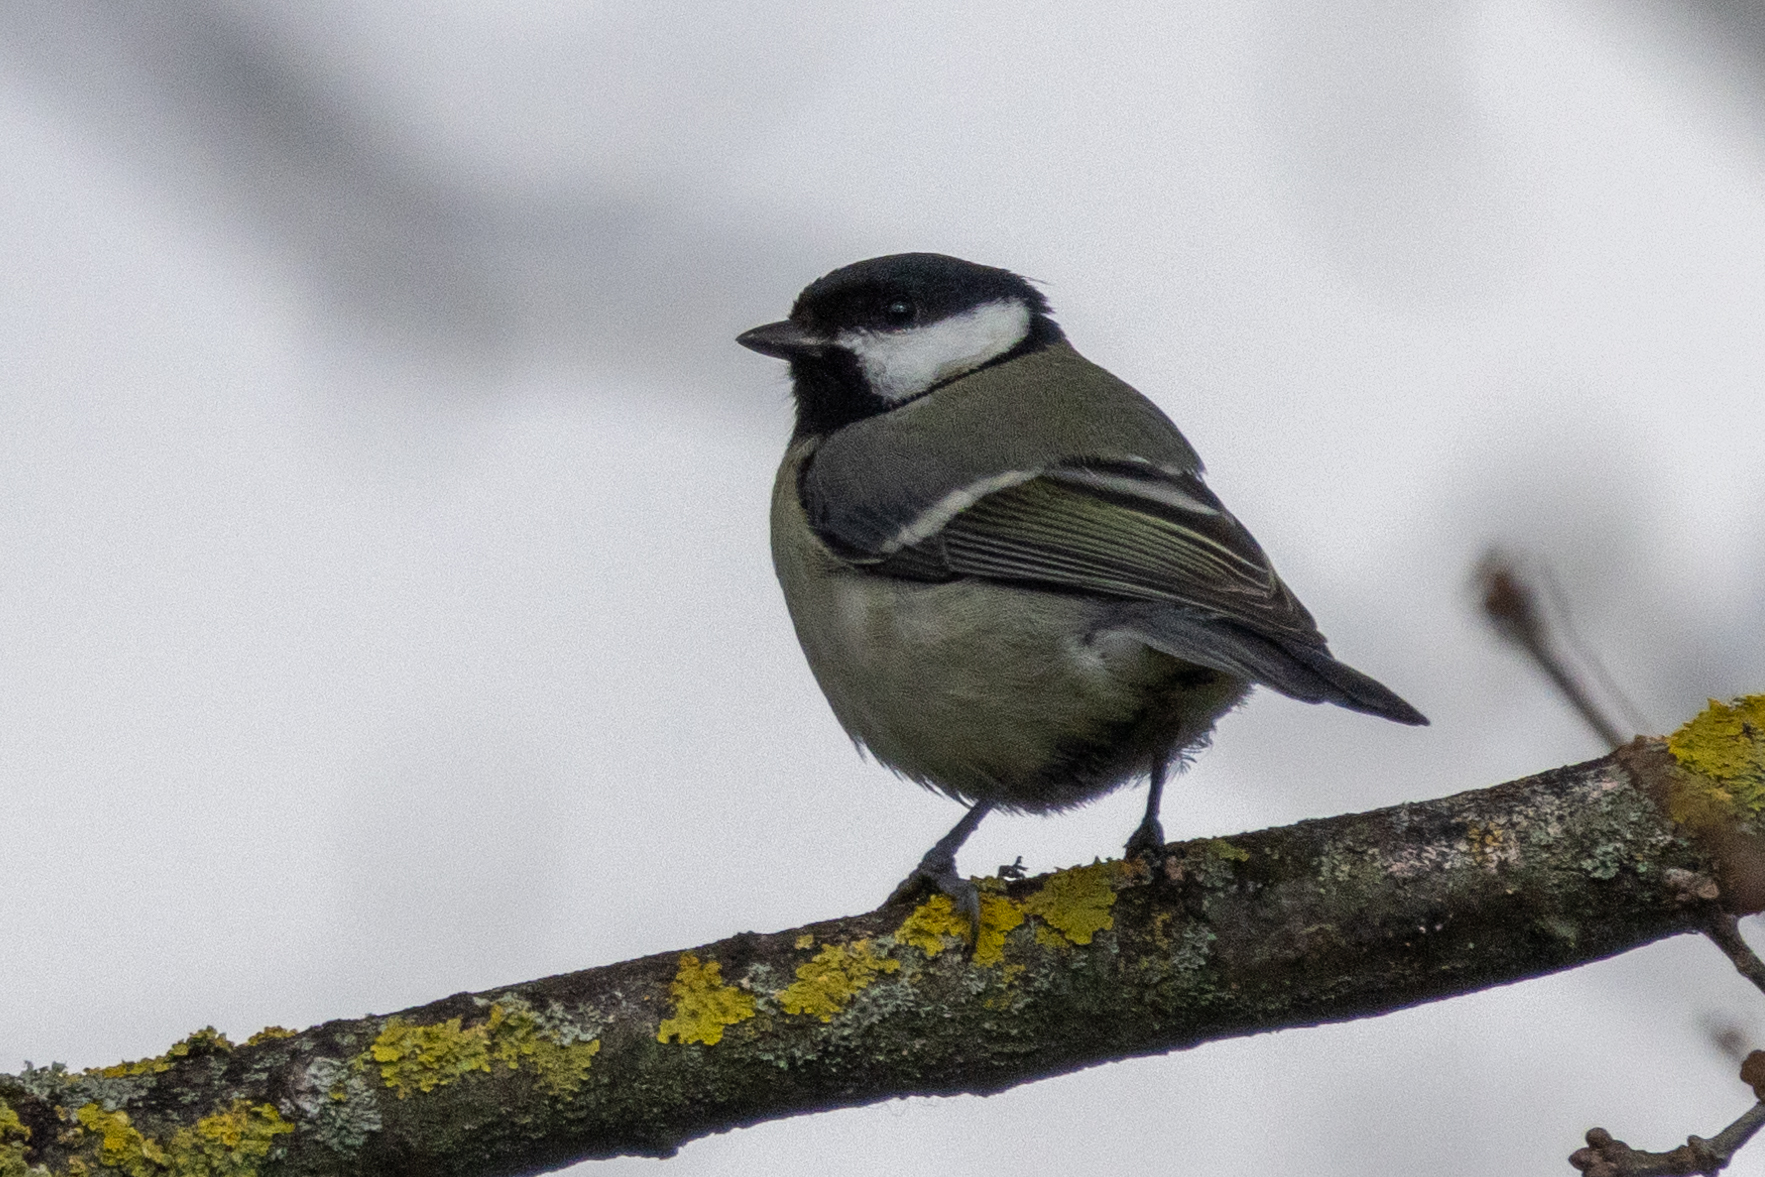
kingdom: Animalia
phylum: Chordata
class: Aves
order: Passeriformes
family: Paridae
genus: Parus
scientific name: Parus major
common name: Great tit
